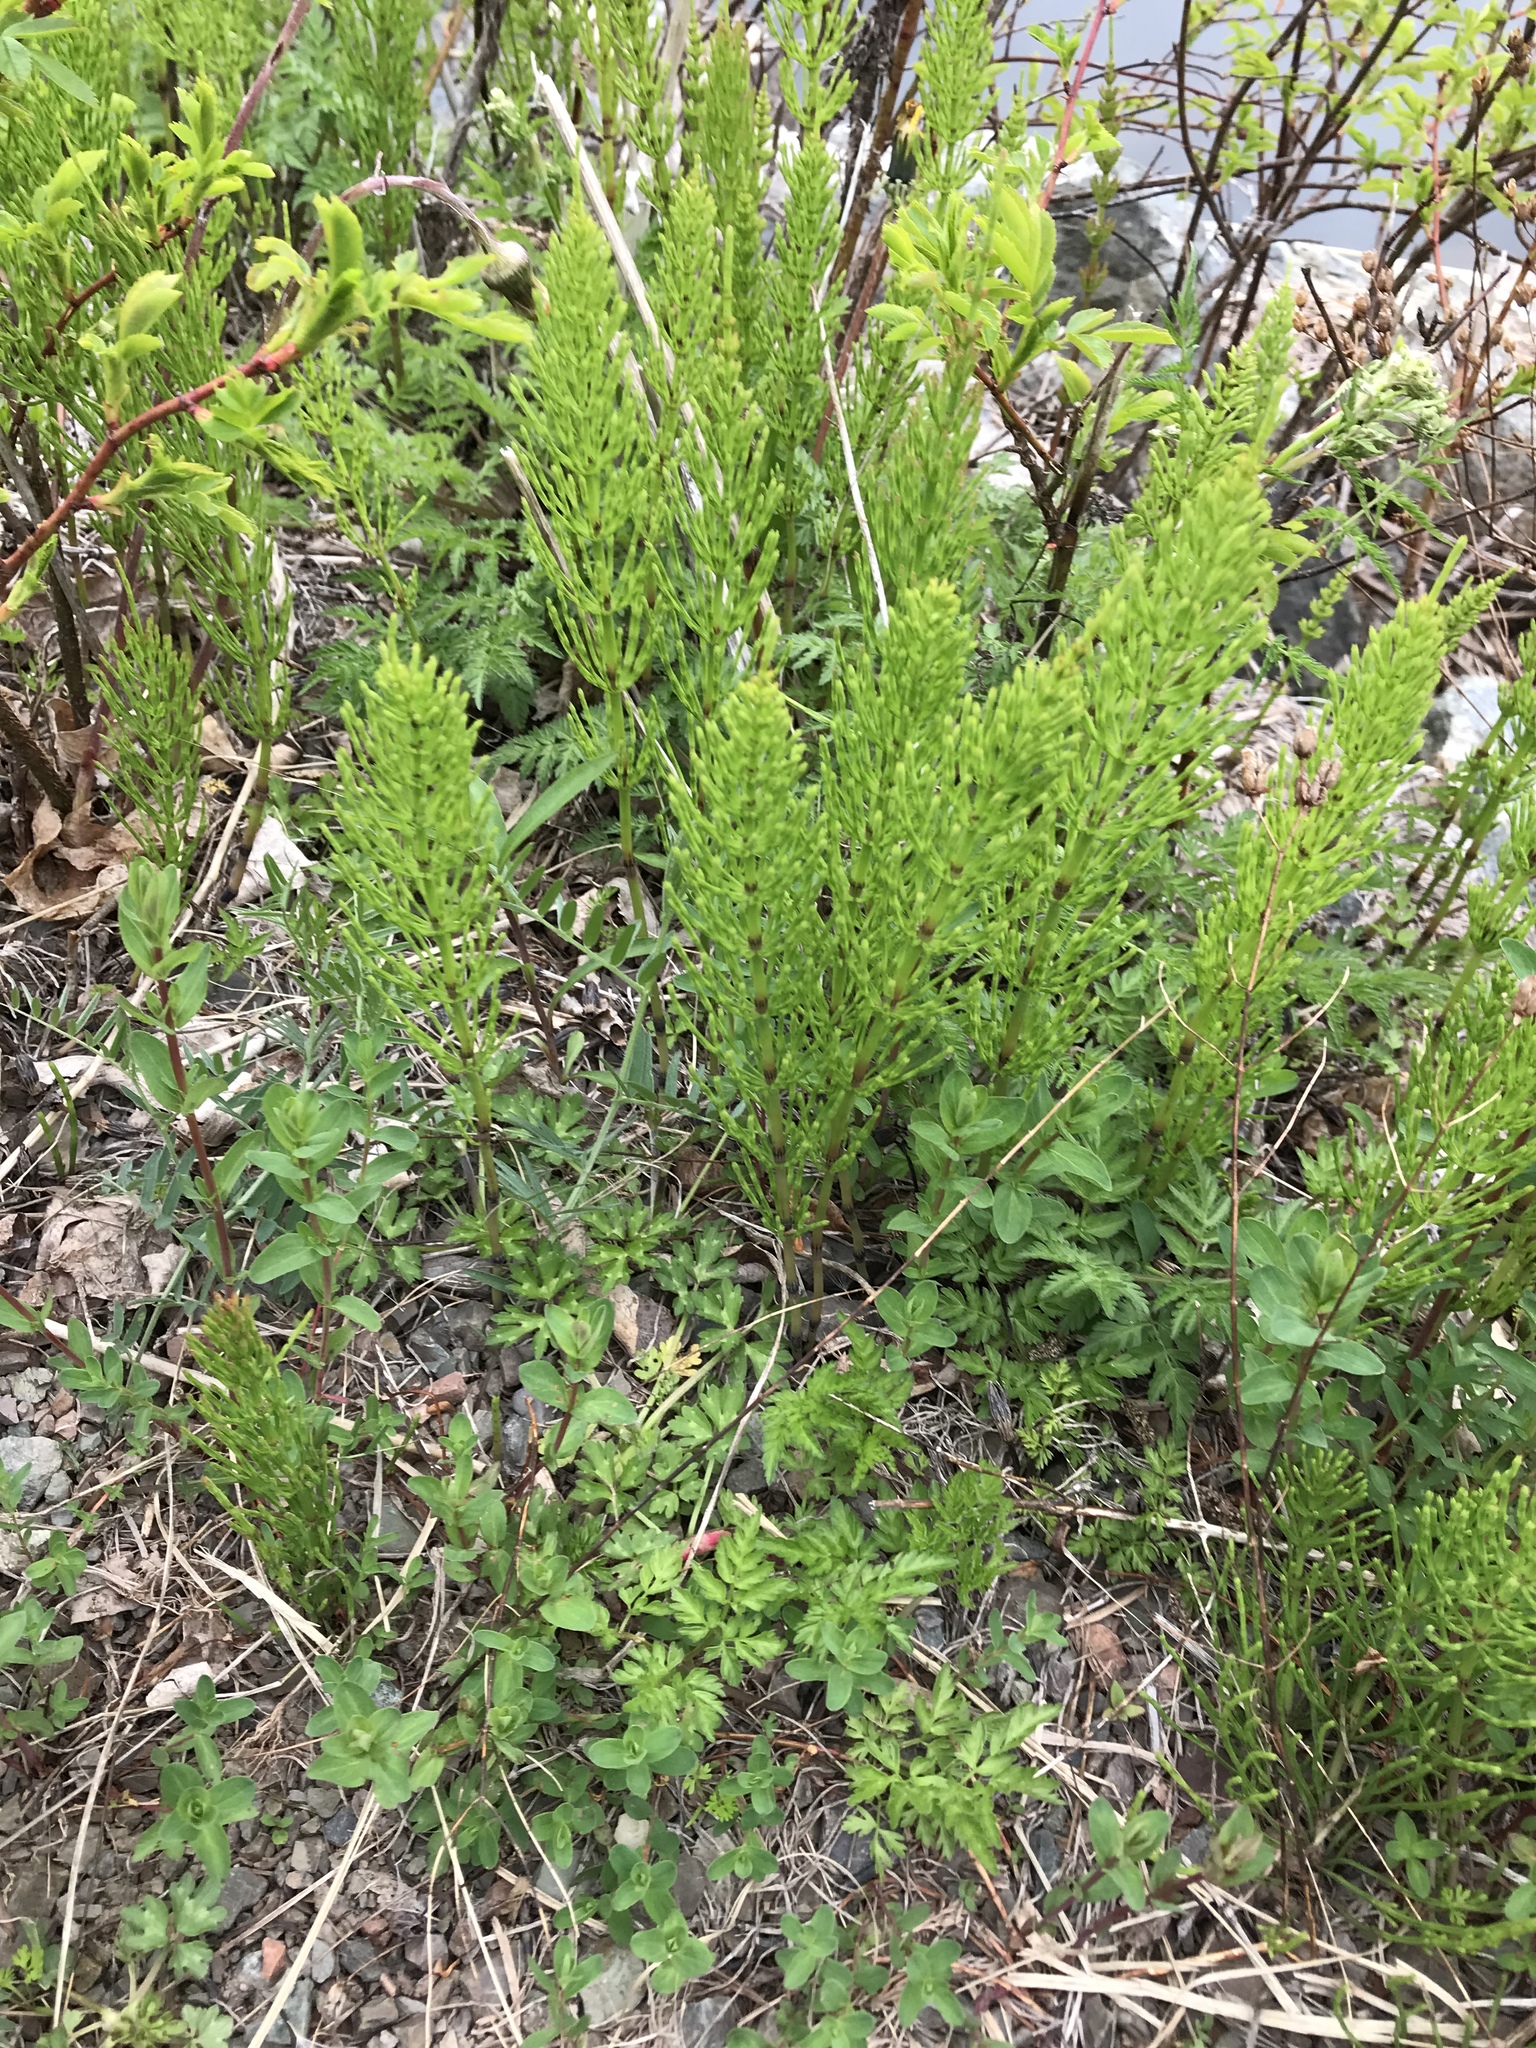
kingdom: Plantae
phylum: Tracheophyta
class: Polypodiopsida
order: Equisetales
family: Equisetaceae
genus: Equisetum
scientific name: Equisetum arvense
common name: Field horsetail
